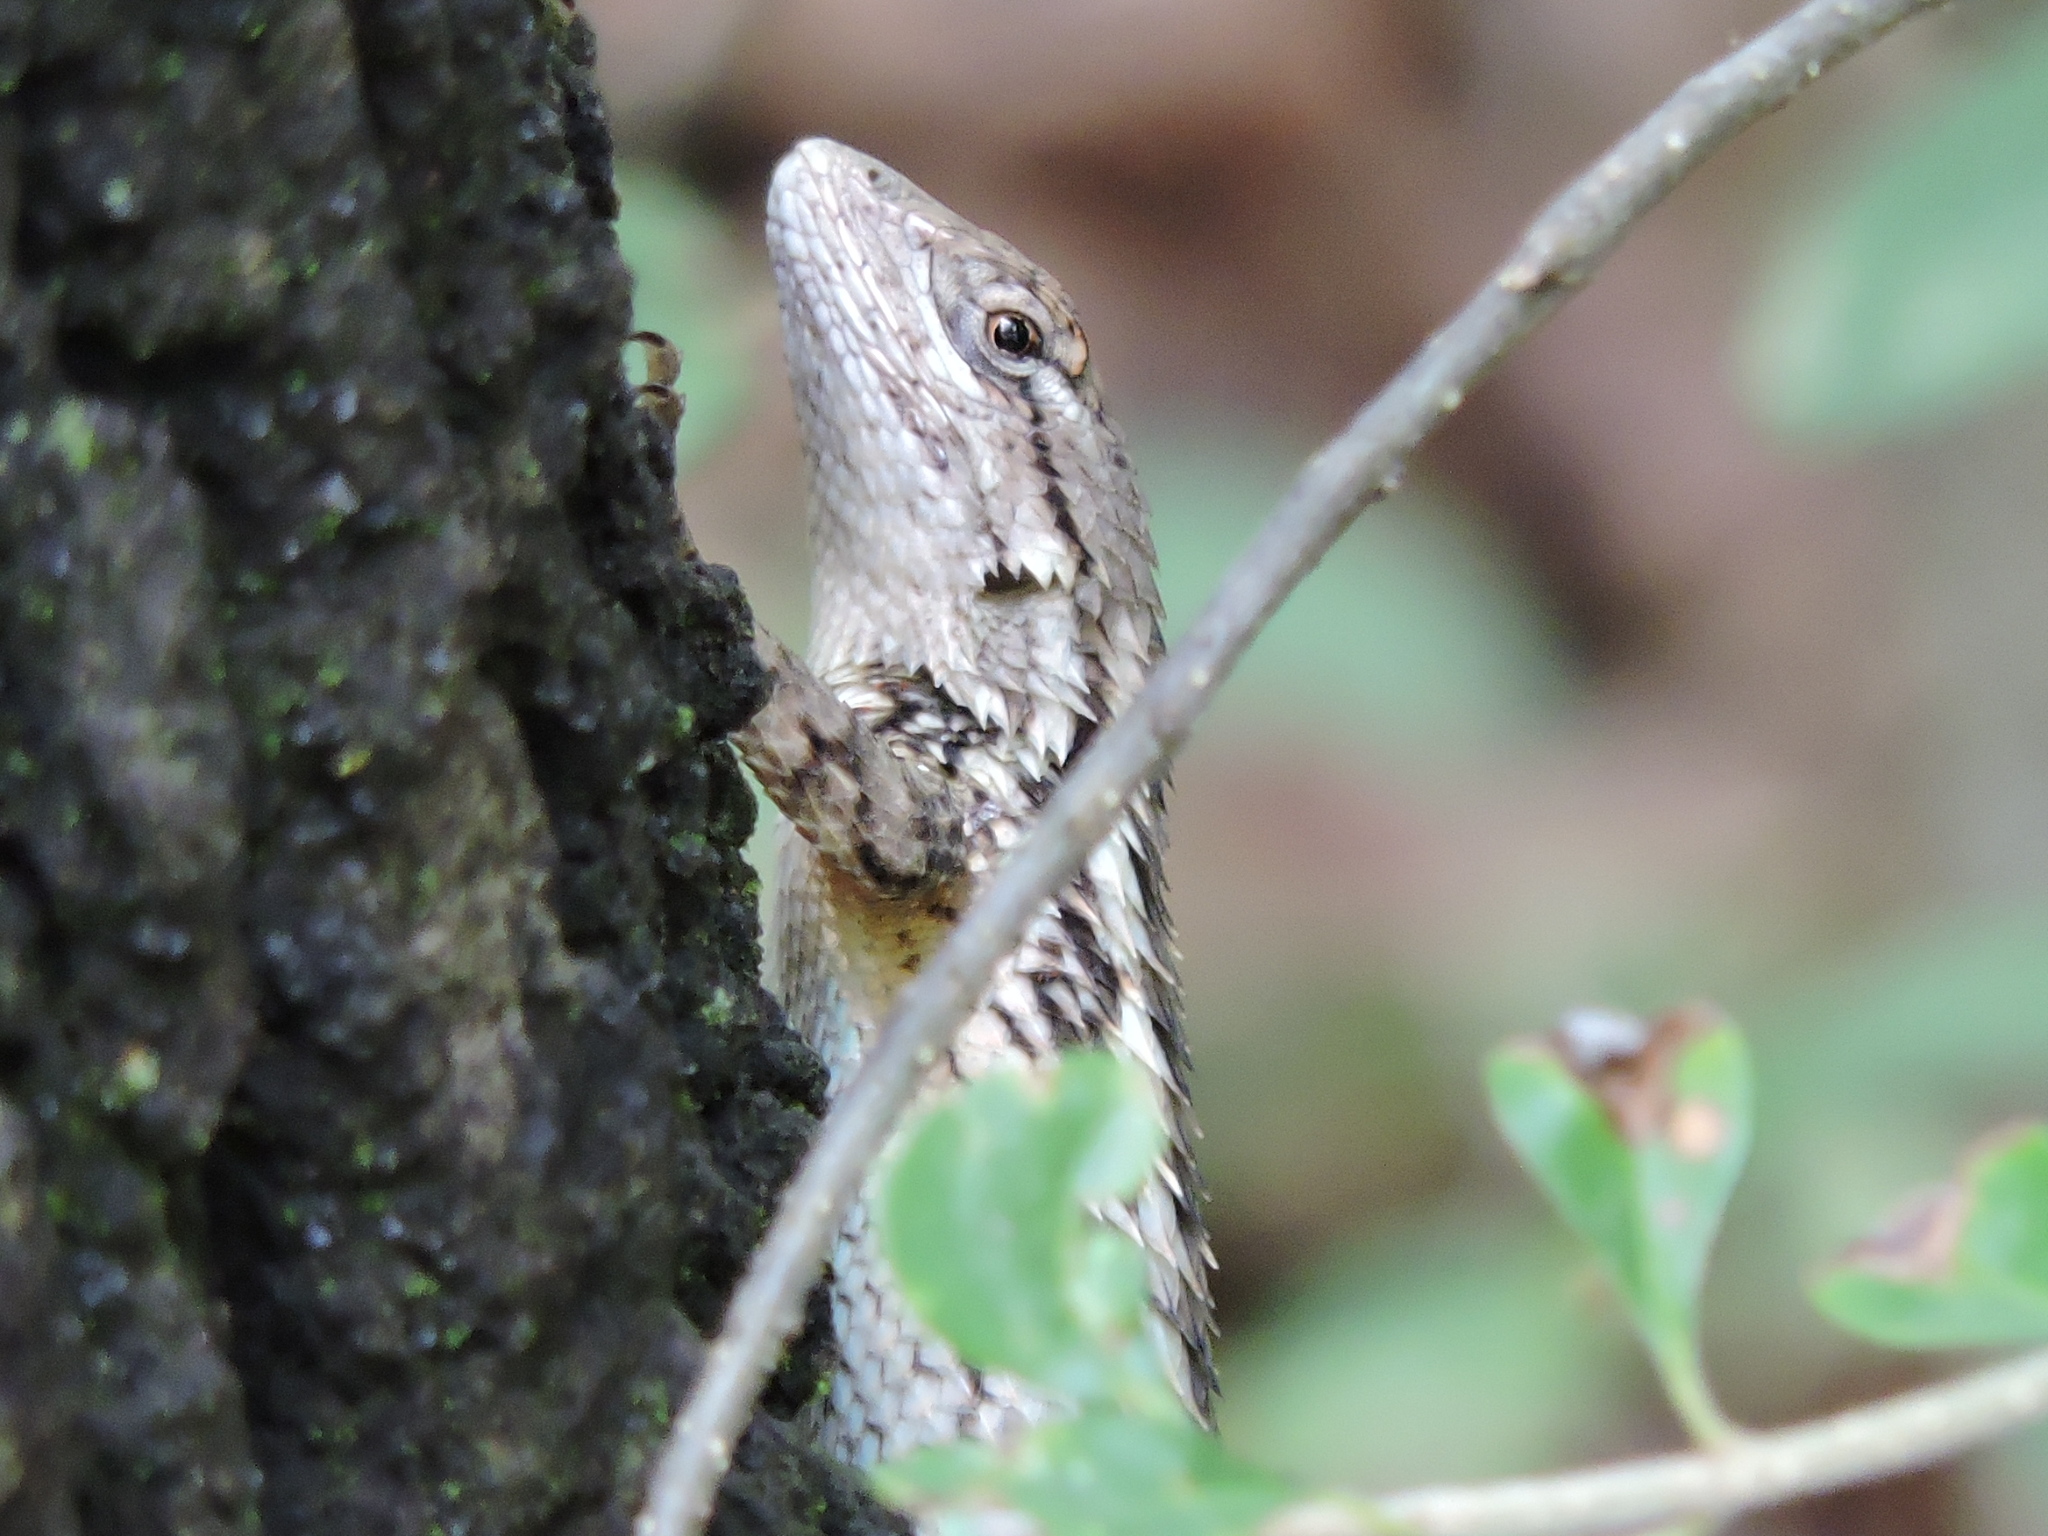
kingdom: Animalia
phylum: Chordata
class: Squamata
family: Phrynosomatidae
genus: Sceloporus
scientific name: Sceloporus olivaceus
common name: Texas spiny lizard
